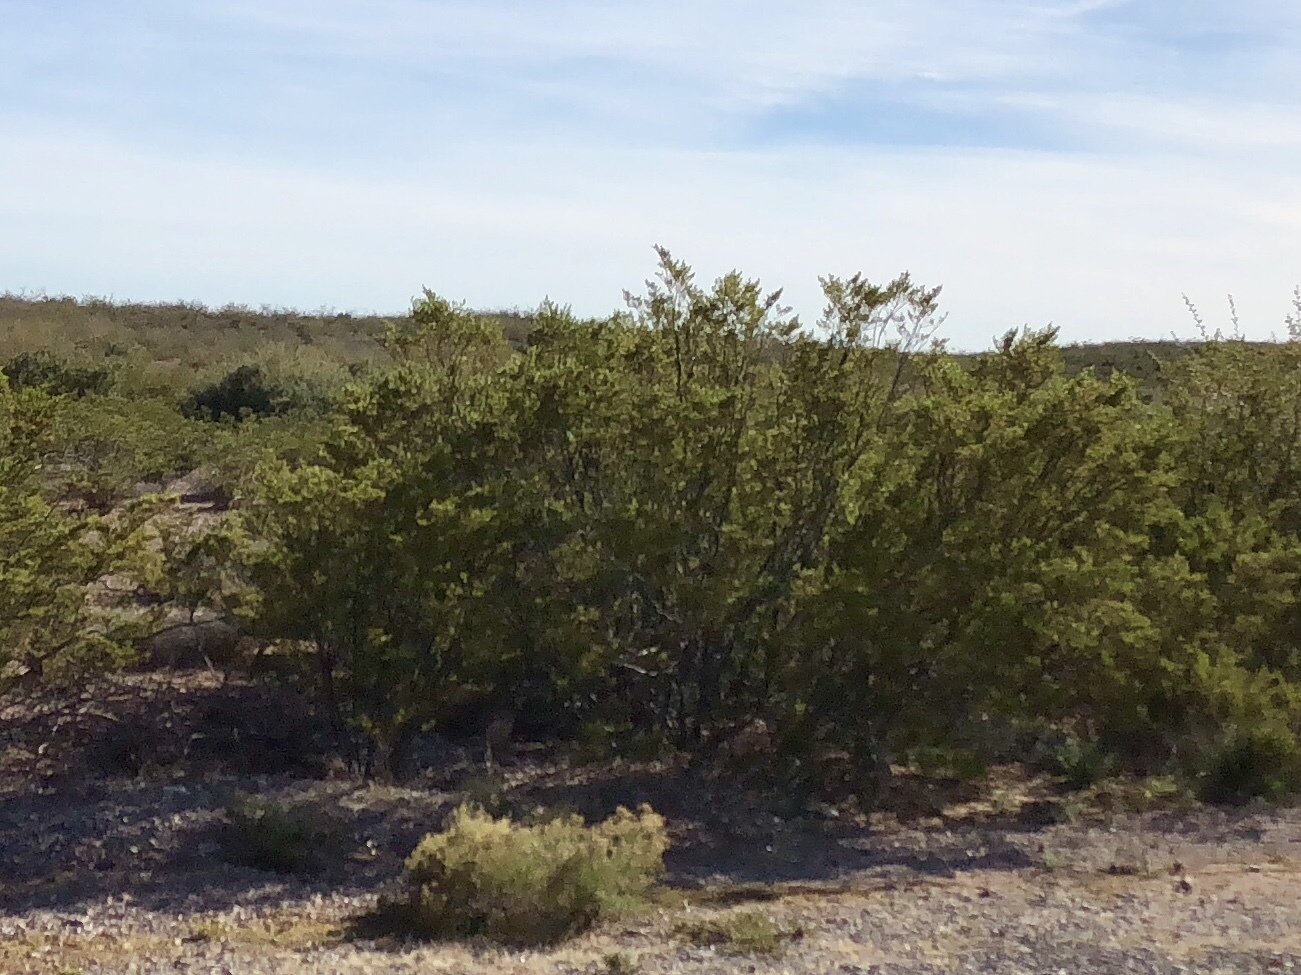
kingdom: Plantae
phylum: Tracheophyta
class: Magnoliopsida
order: Zygophyllales
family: Zygophyllaceae
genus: Larrea
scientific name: Larrea tridentata
